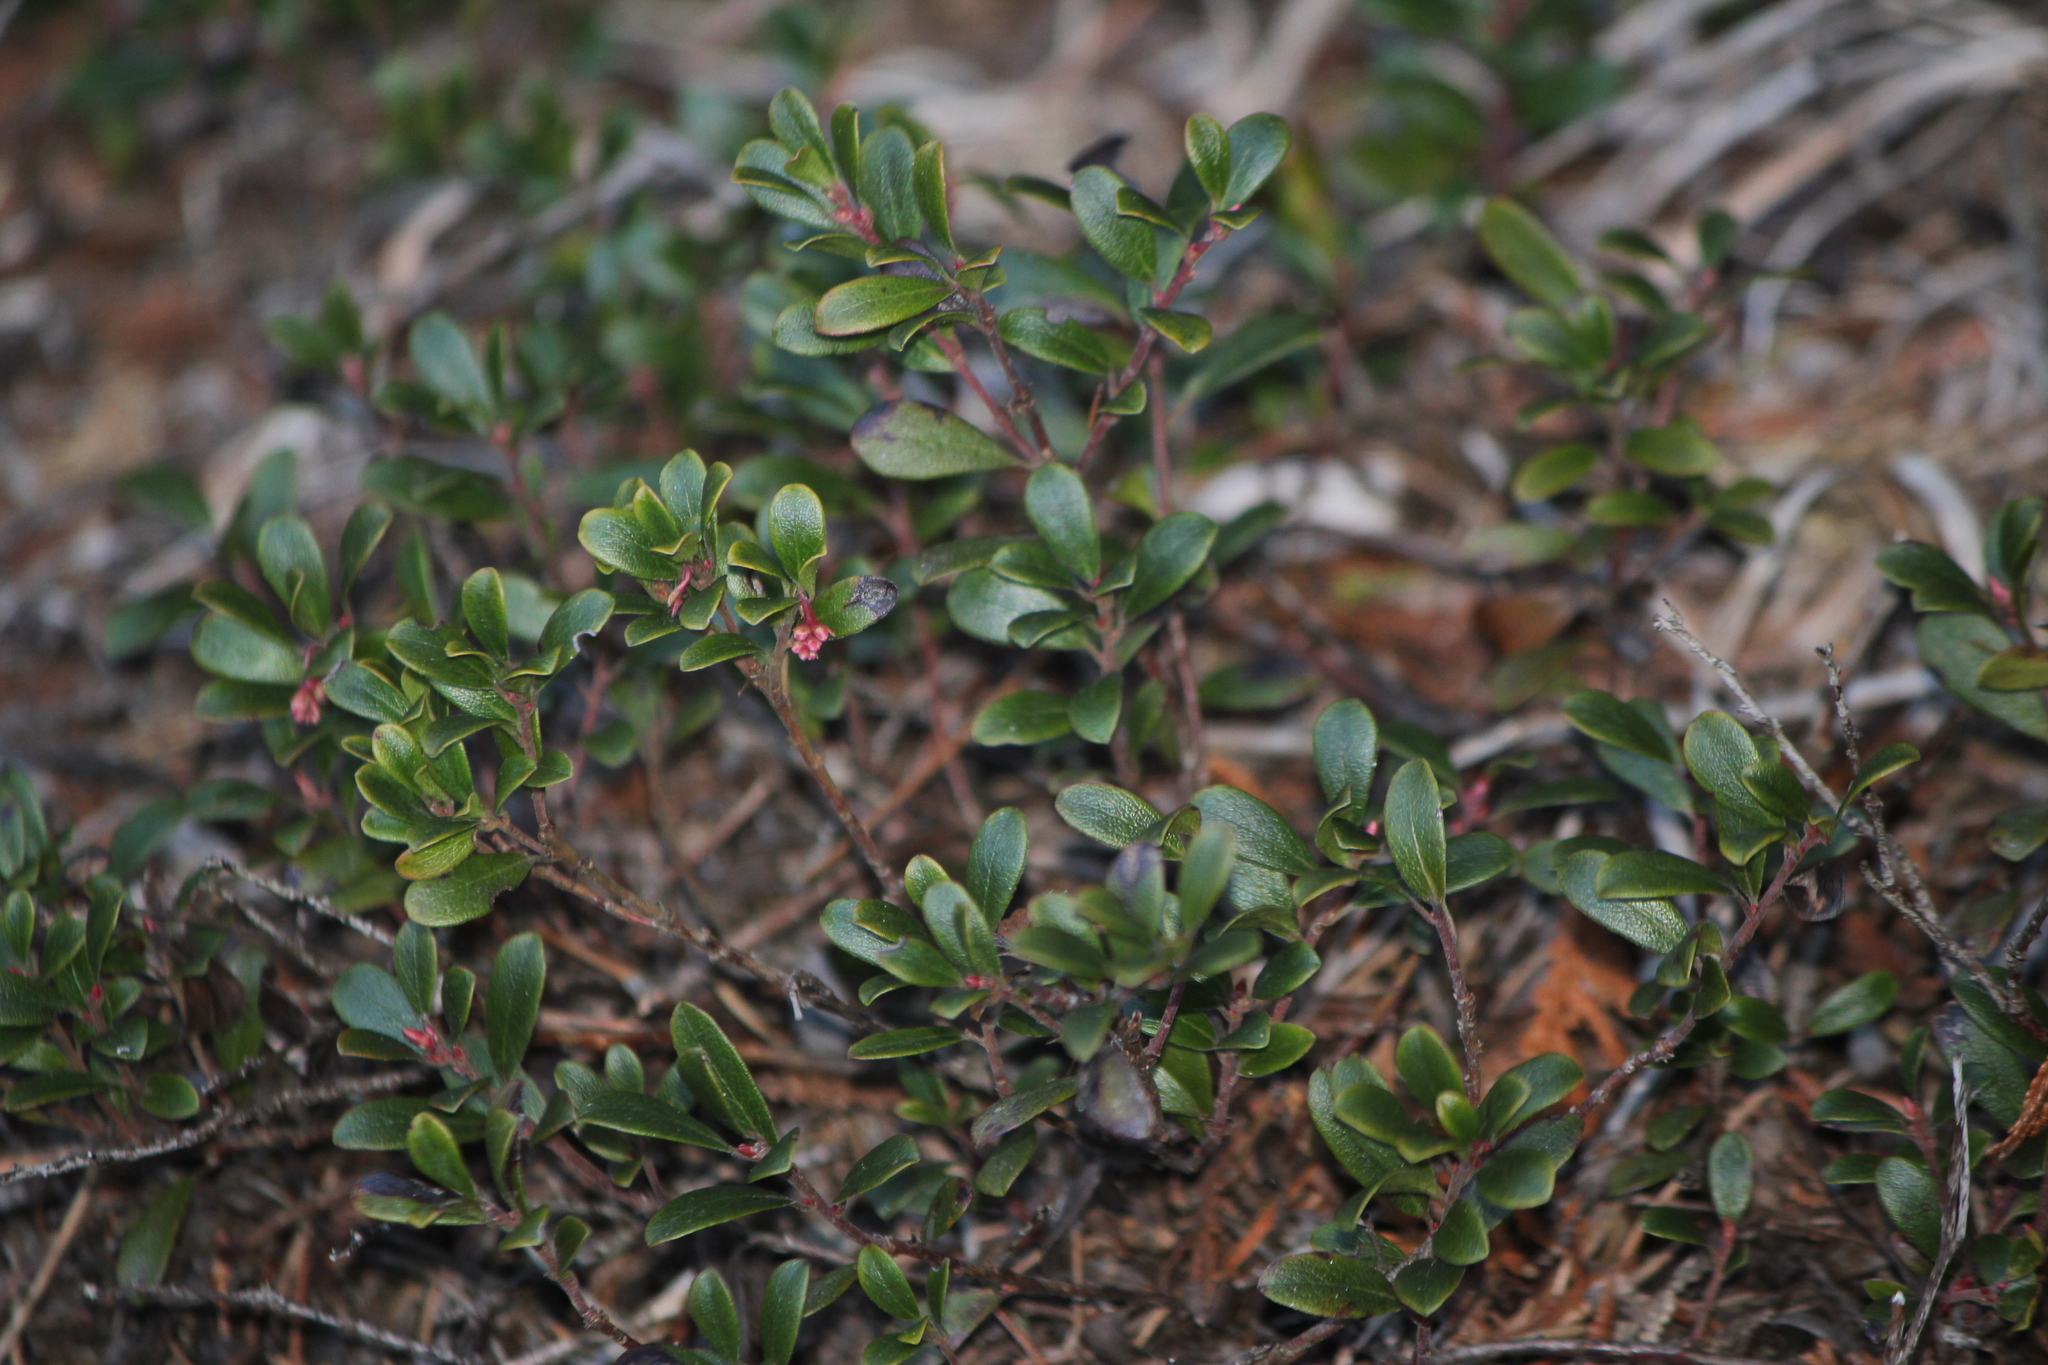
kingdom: Plantae
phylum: Tracheophyta
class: Magnoliopsida
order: Ericales
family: Ericaceae
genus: Arctostaphylos
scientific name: Arctostaphylos uva-ursi
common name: Bearberry
